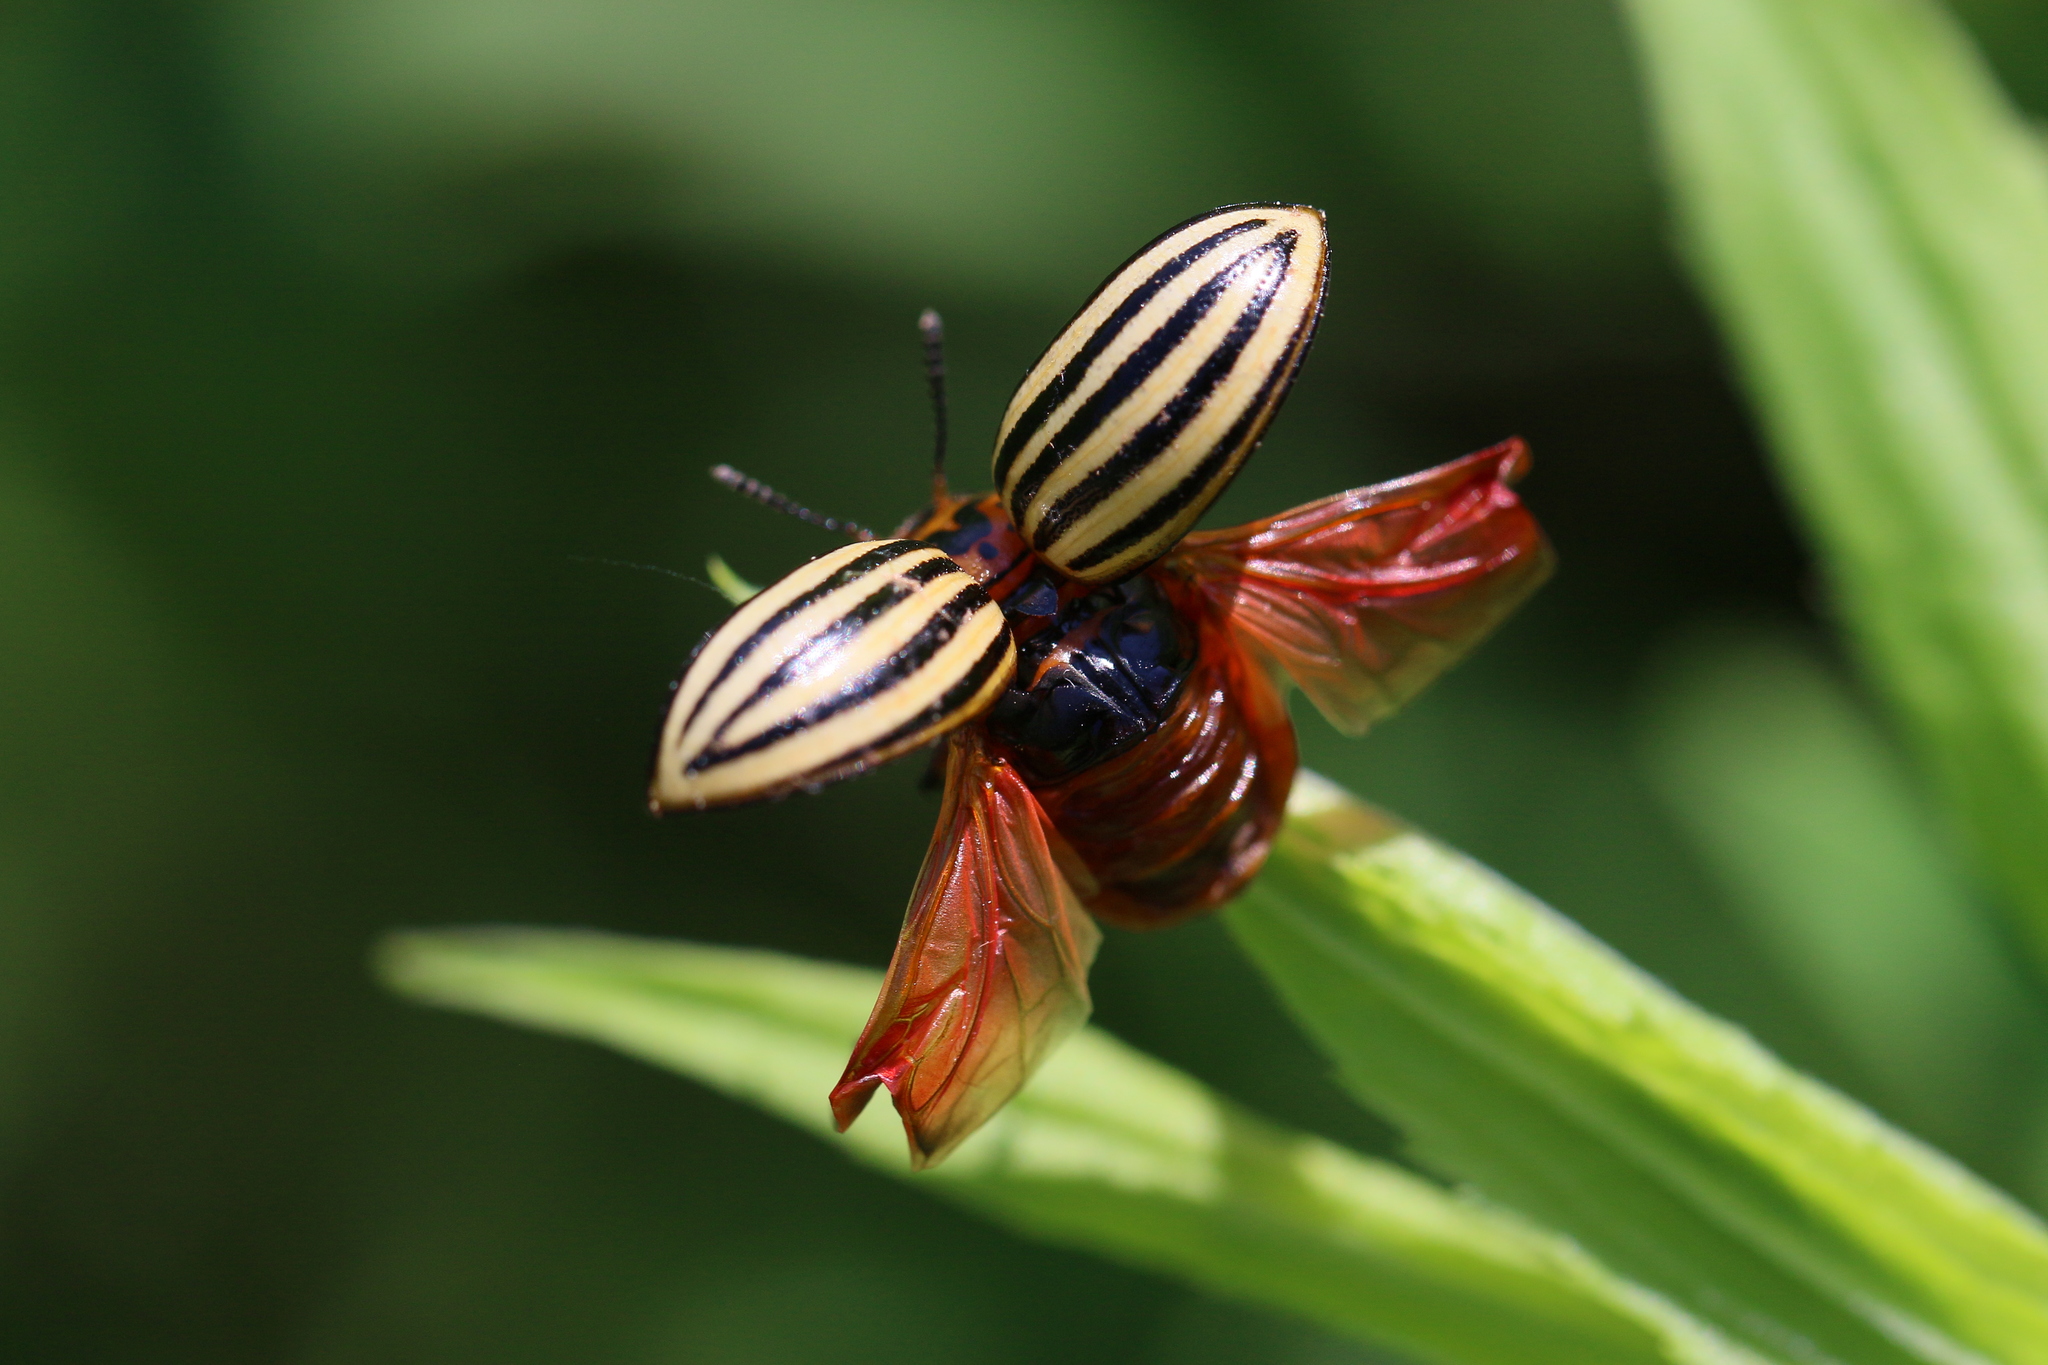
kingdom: Animalia
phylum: Arthropoda
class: Insecta
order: Coleoptera
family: Chrysomelidae
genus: Leptinotarsa
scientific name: Leptinotarsa decemlineata
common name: Colorado potato beetle
